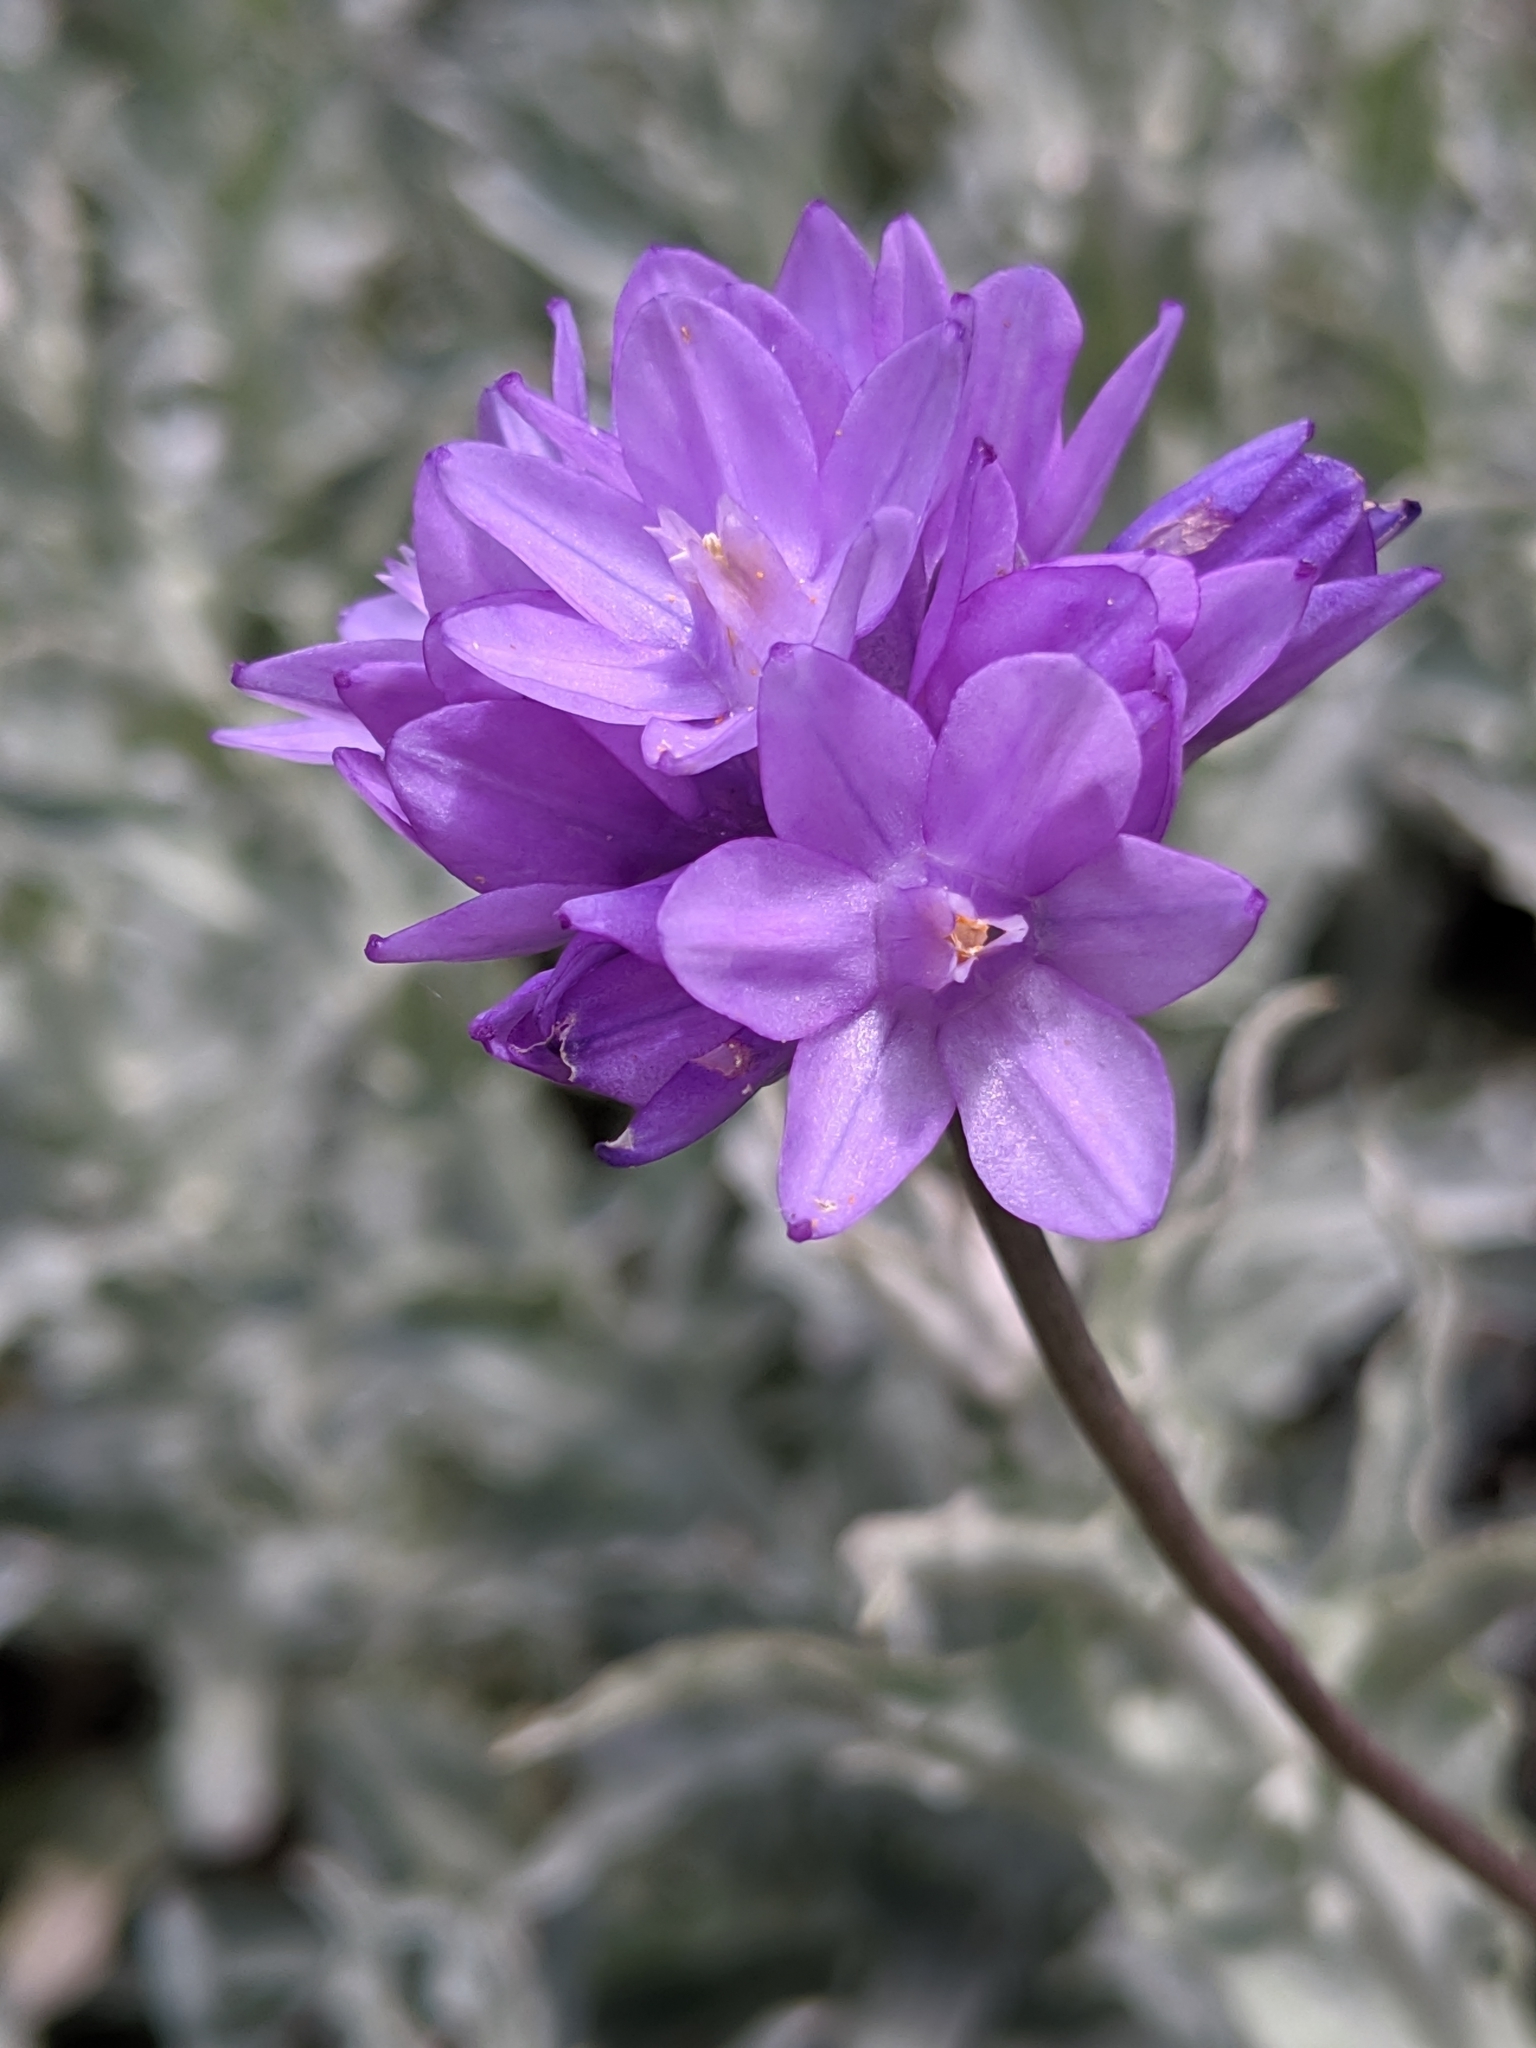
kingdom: Plantae
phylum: Tracheophyta
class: Liliopsida
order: Asparagales
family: Asparagaceae
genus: Dipterostemon
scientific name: Dipterostemon capitatus
